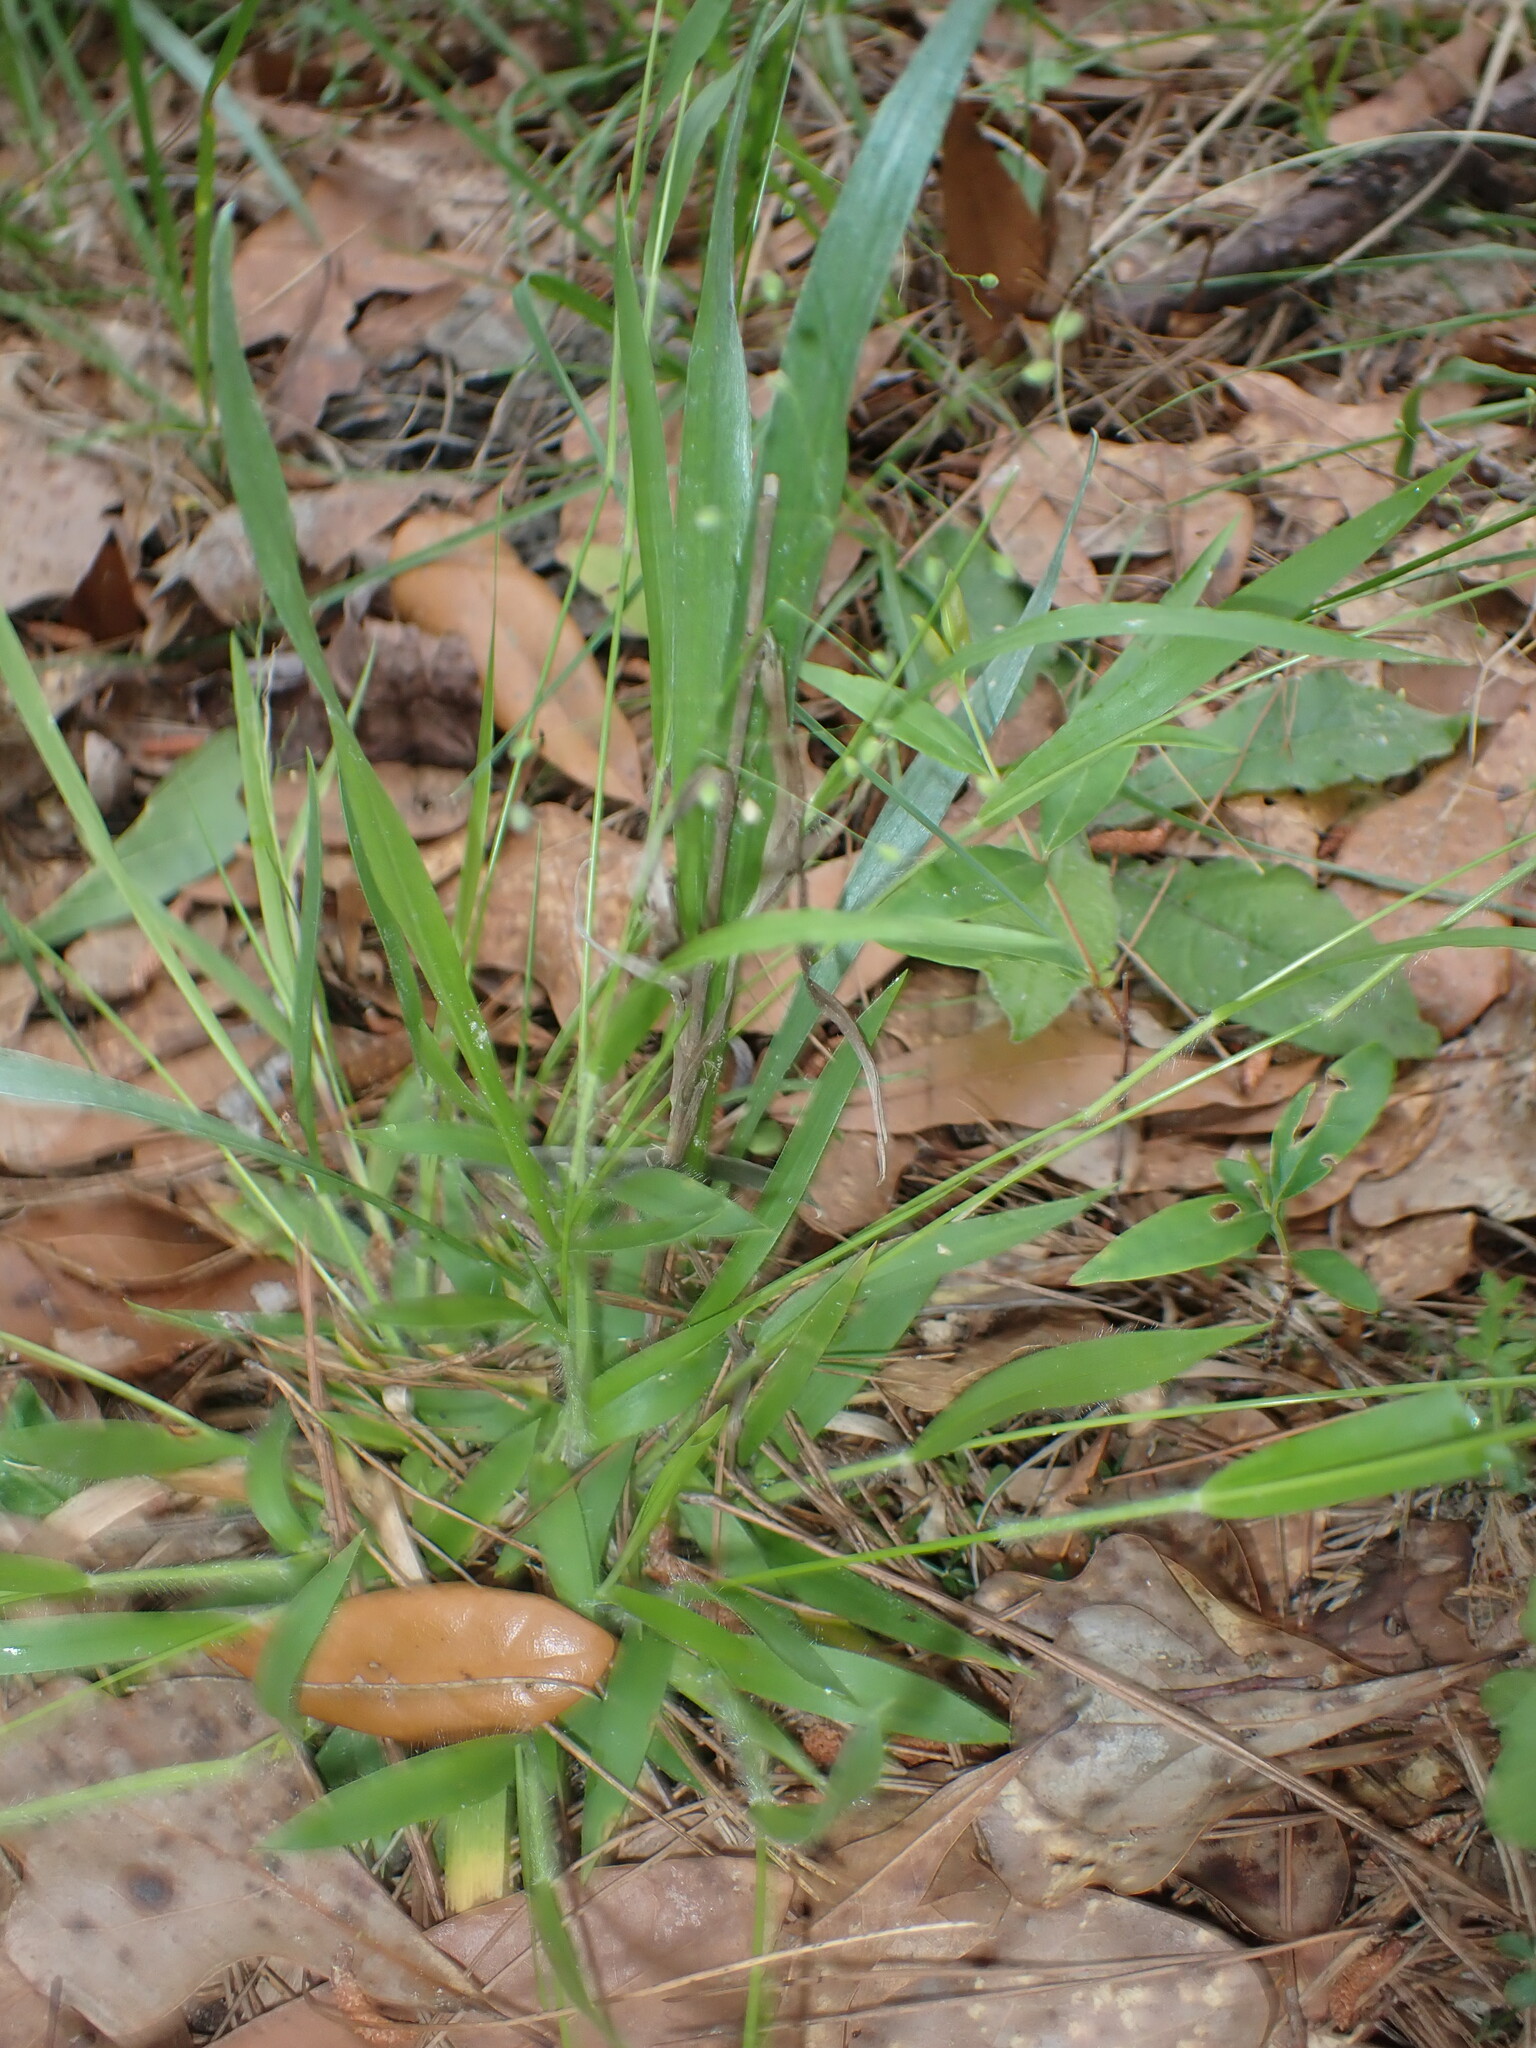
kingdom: Plantae
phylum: Tracheophyta
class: Liliopsida
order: Poales
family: Poaceae
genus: Dichanthelium
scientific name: Dichanthelium laxiflorum
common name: Soft-tuft panic grass
